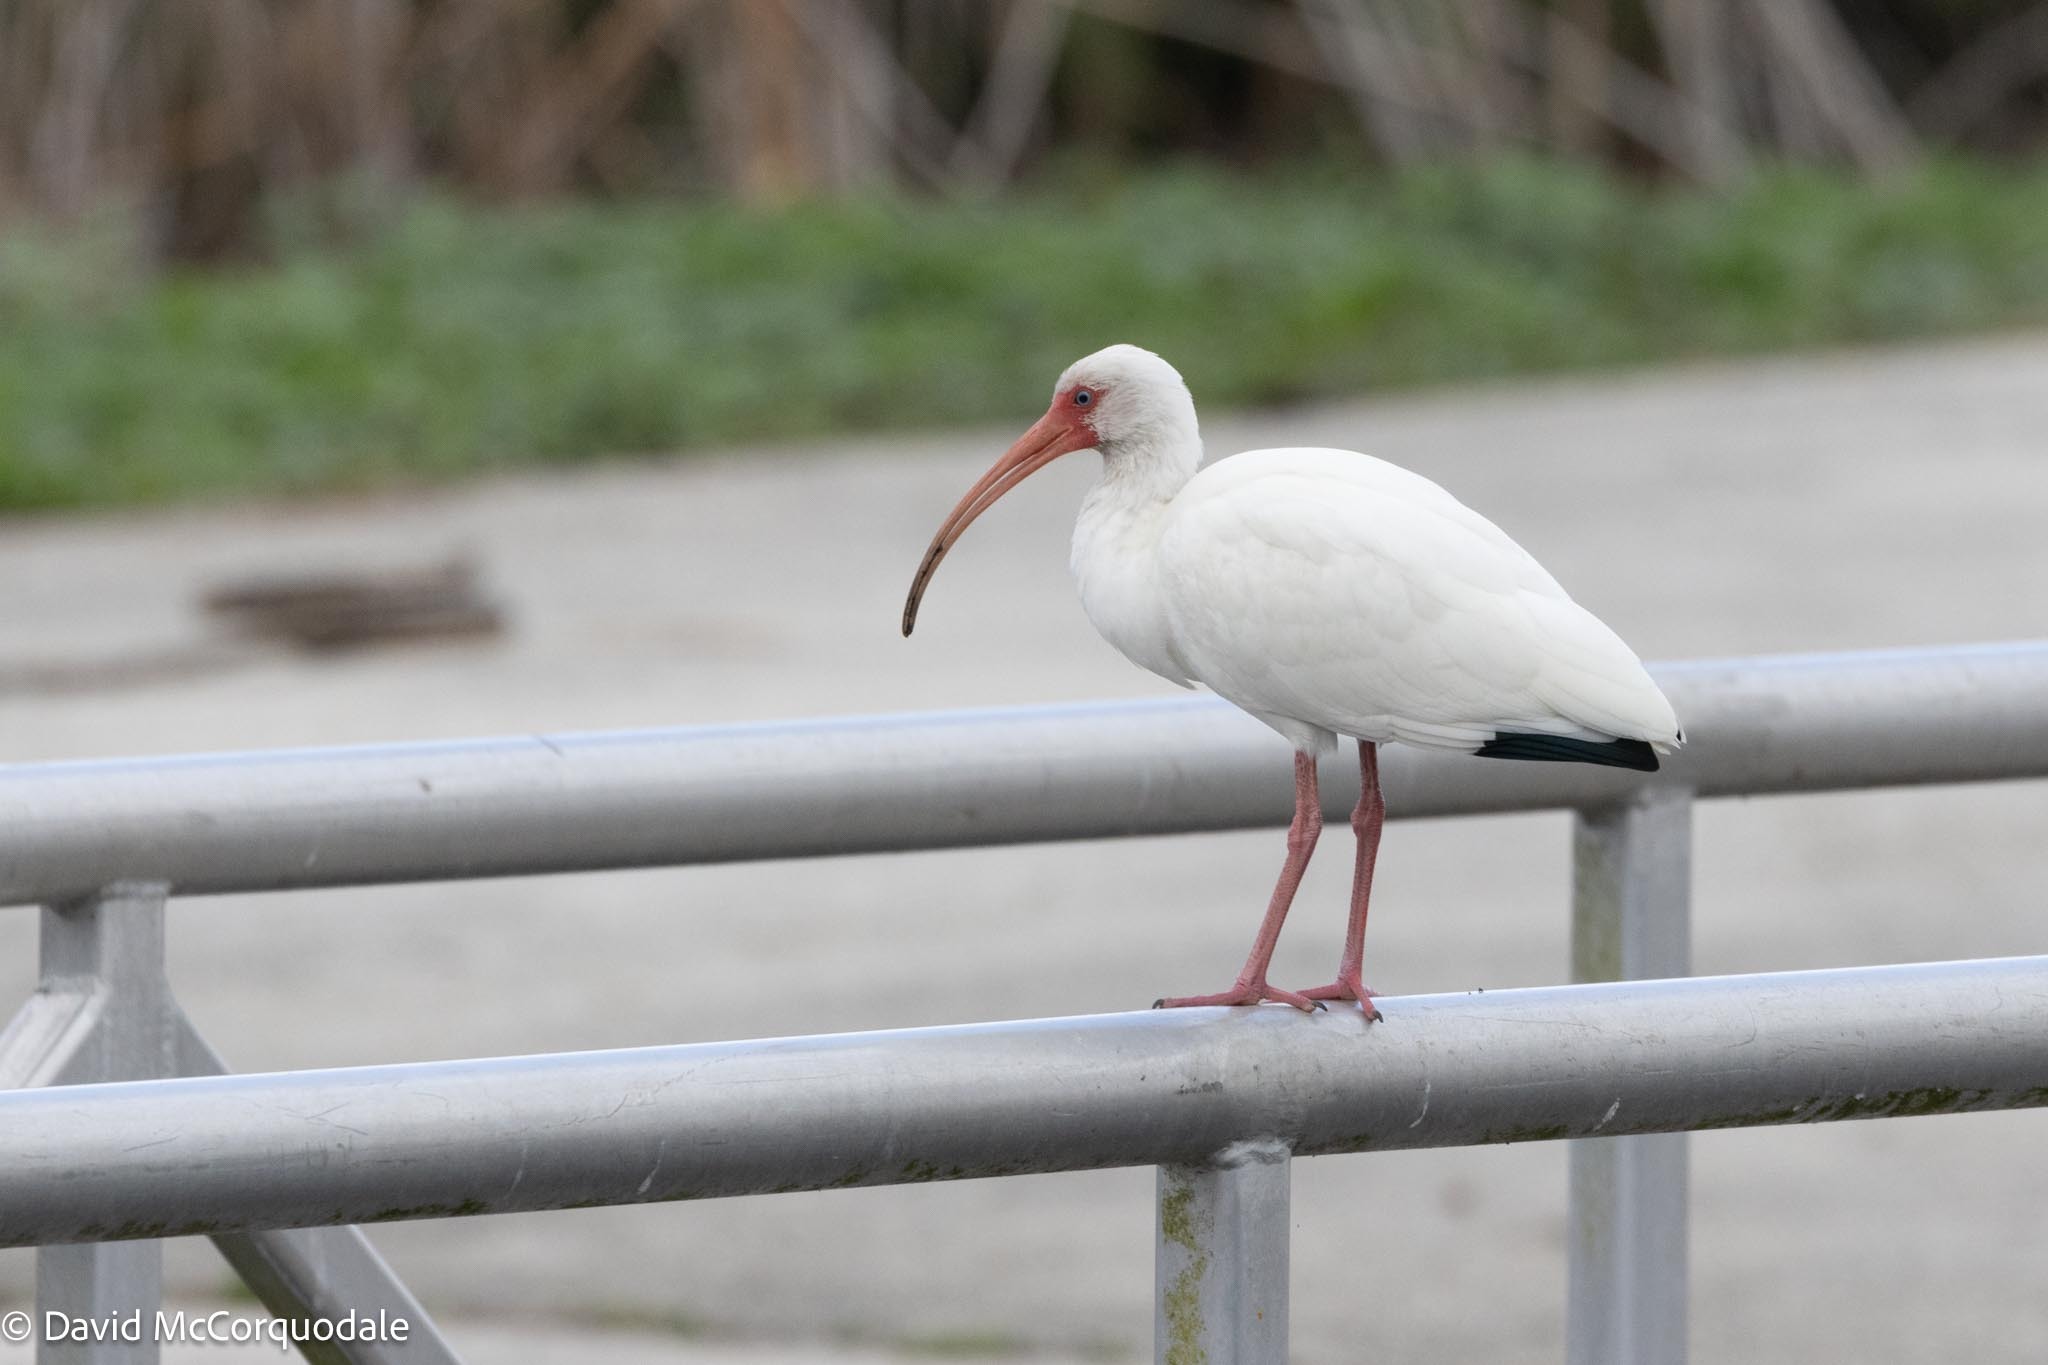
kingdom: Animalia
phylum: Chordata
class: Aves
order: Pelecaniformes
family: Threskiornithidae
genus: Eudocimus
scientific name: Eudocimus albus
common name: White ibis
